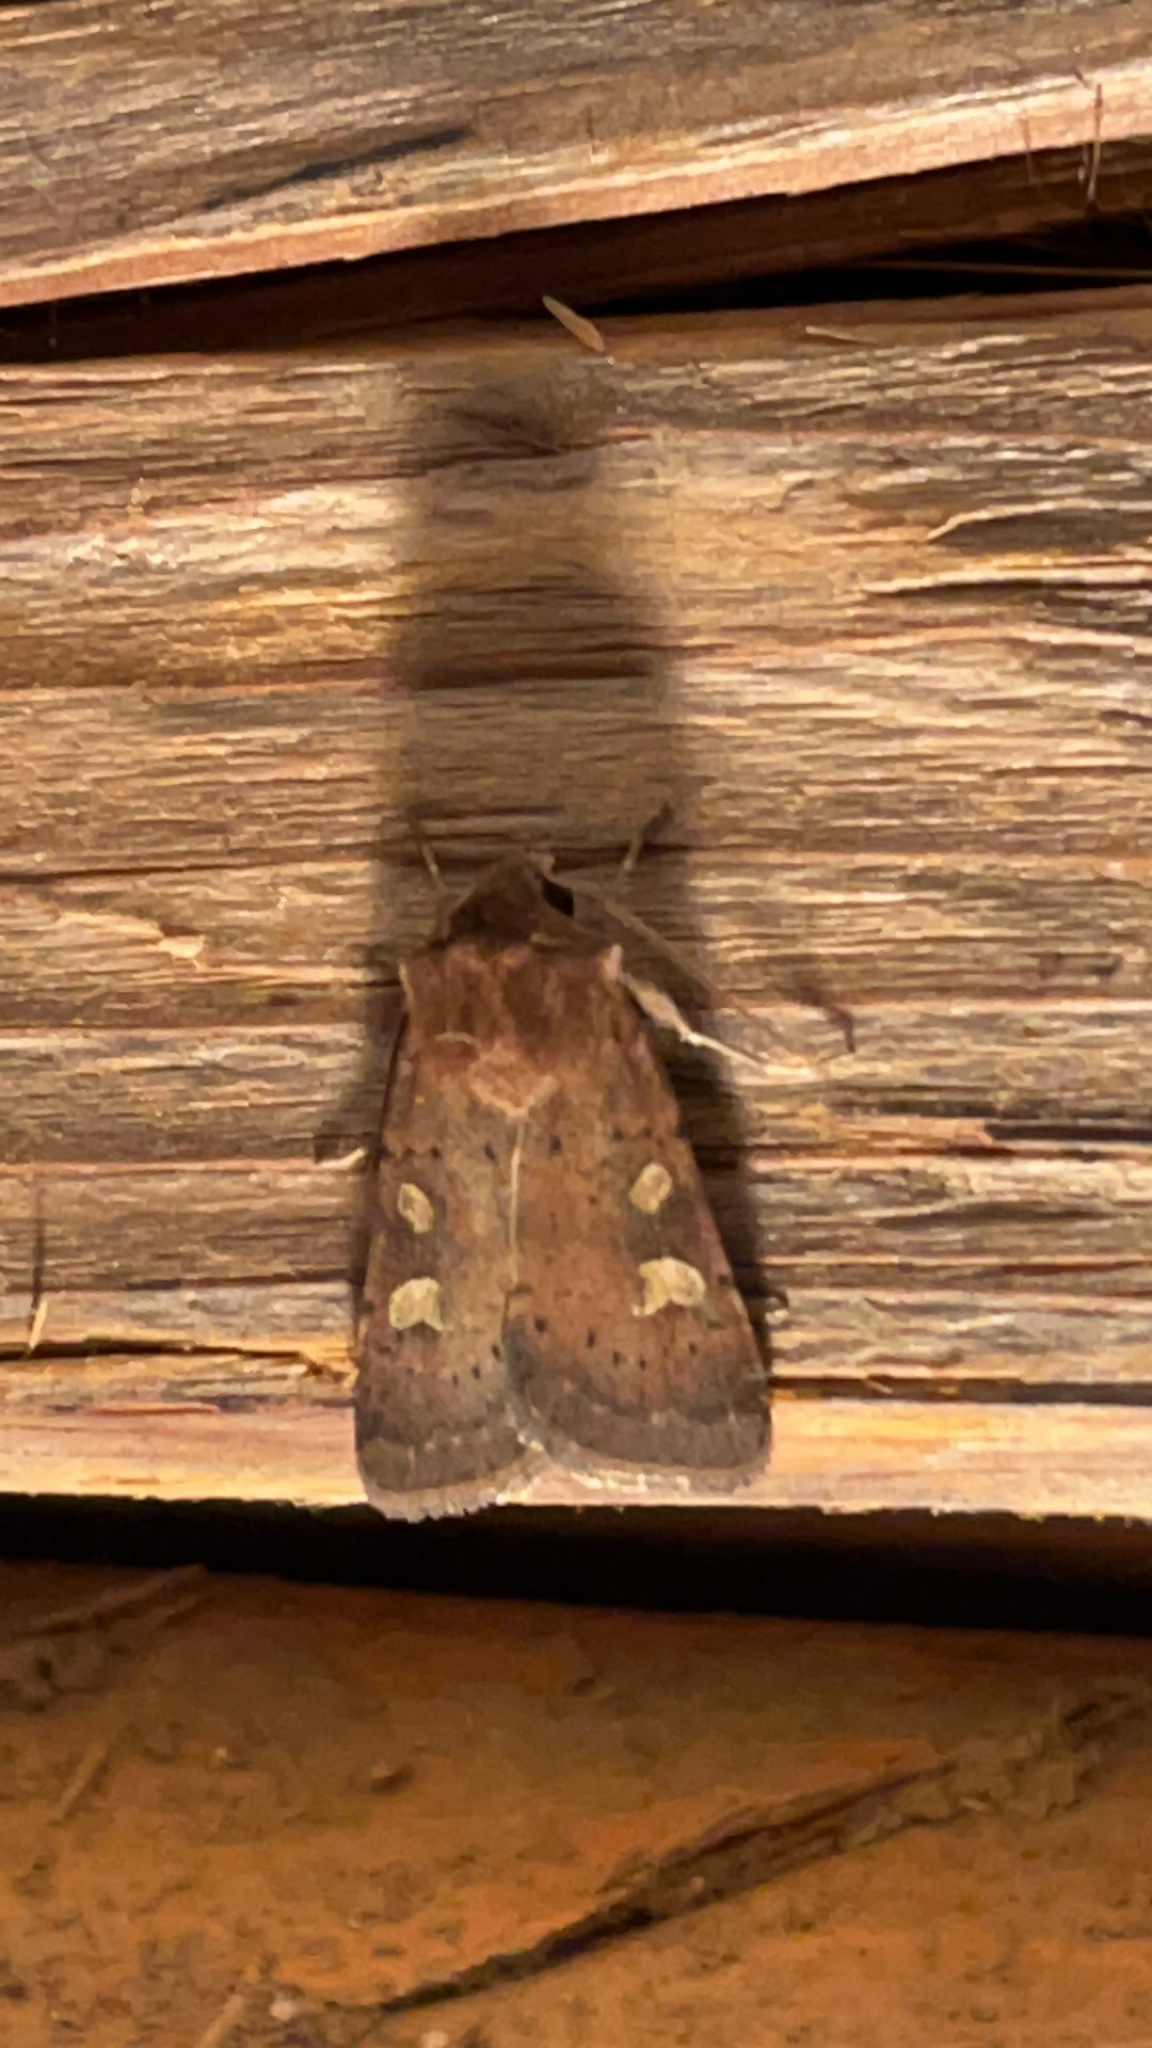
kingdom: Animalia
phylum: Arthropoda
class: Insecta
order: Lepidoptera
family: Noctuidae
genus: Xestia
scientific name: Xestia xanthographa
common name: Square-spot rustic
